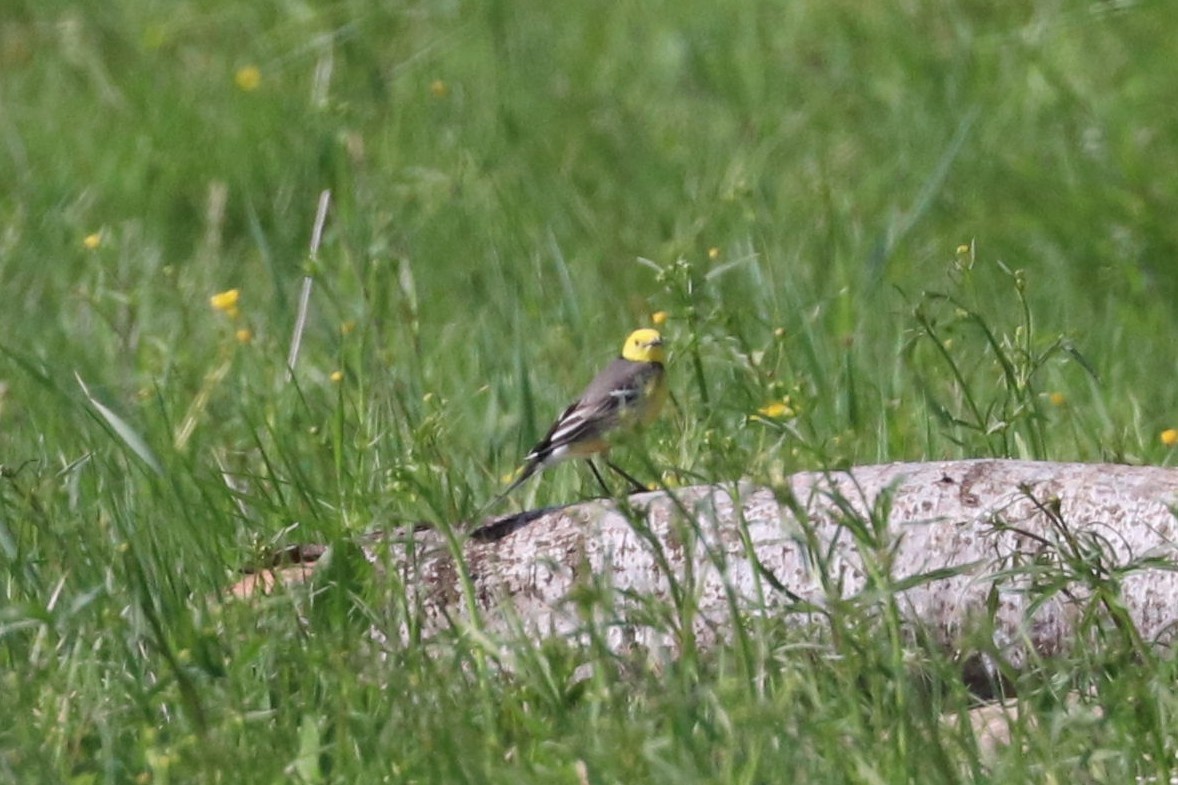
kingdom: Animalia
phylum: Chordata
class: Aves
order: Passeriformes
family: Motacillidae
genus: Motacilla
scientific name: Motacilla citreola
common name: Citrine wagtail
